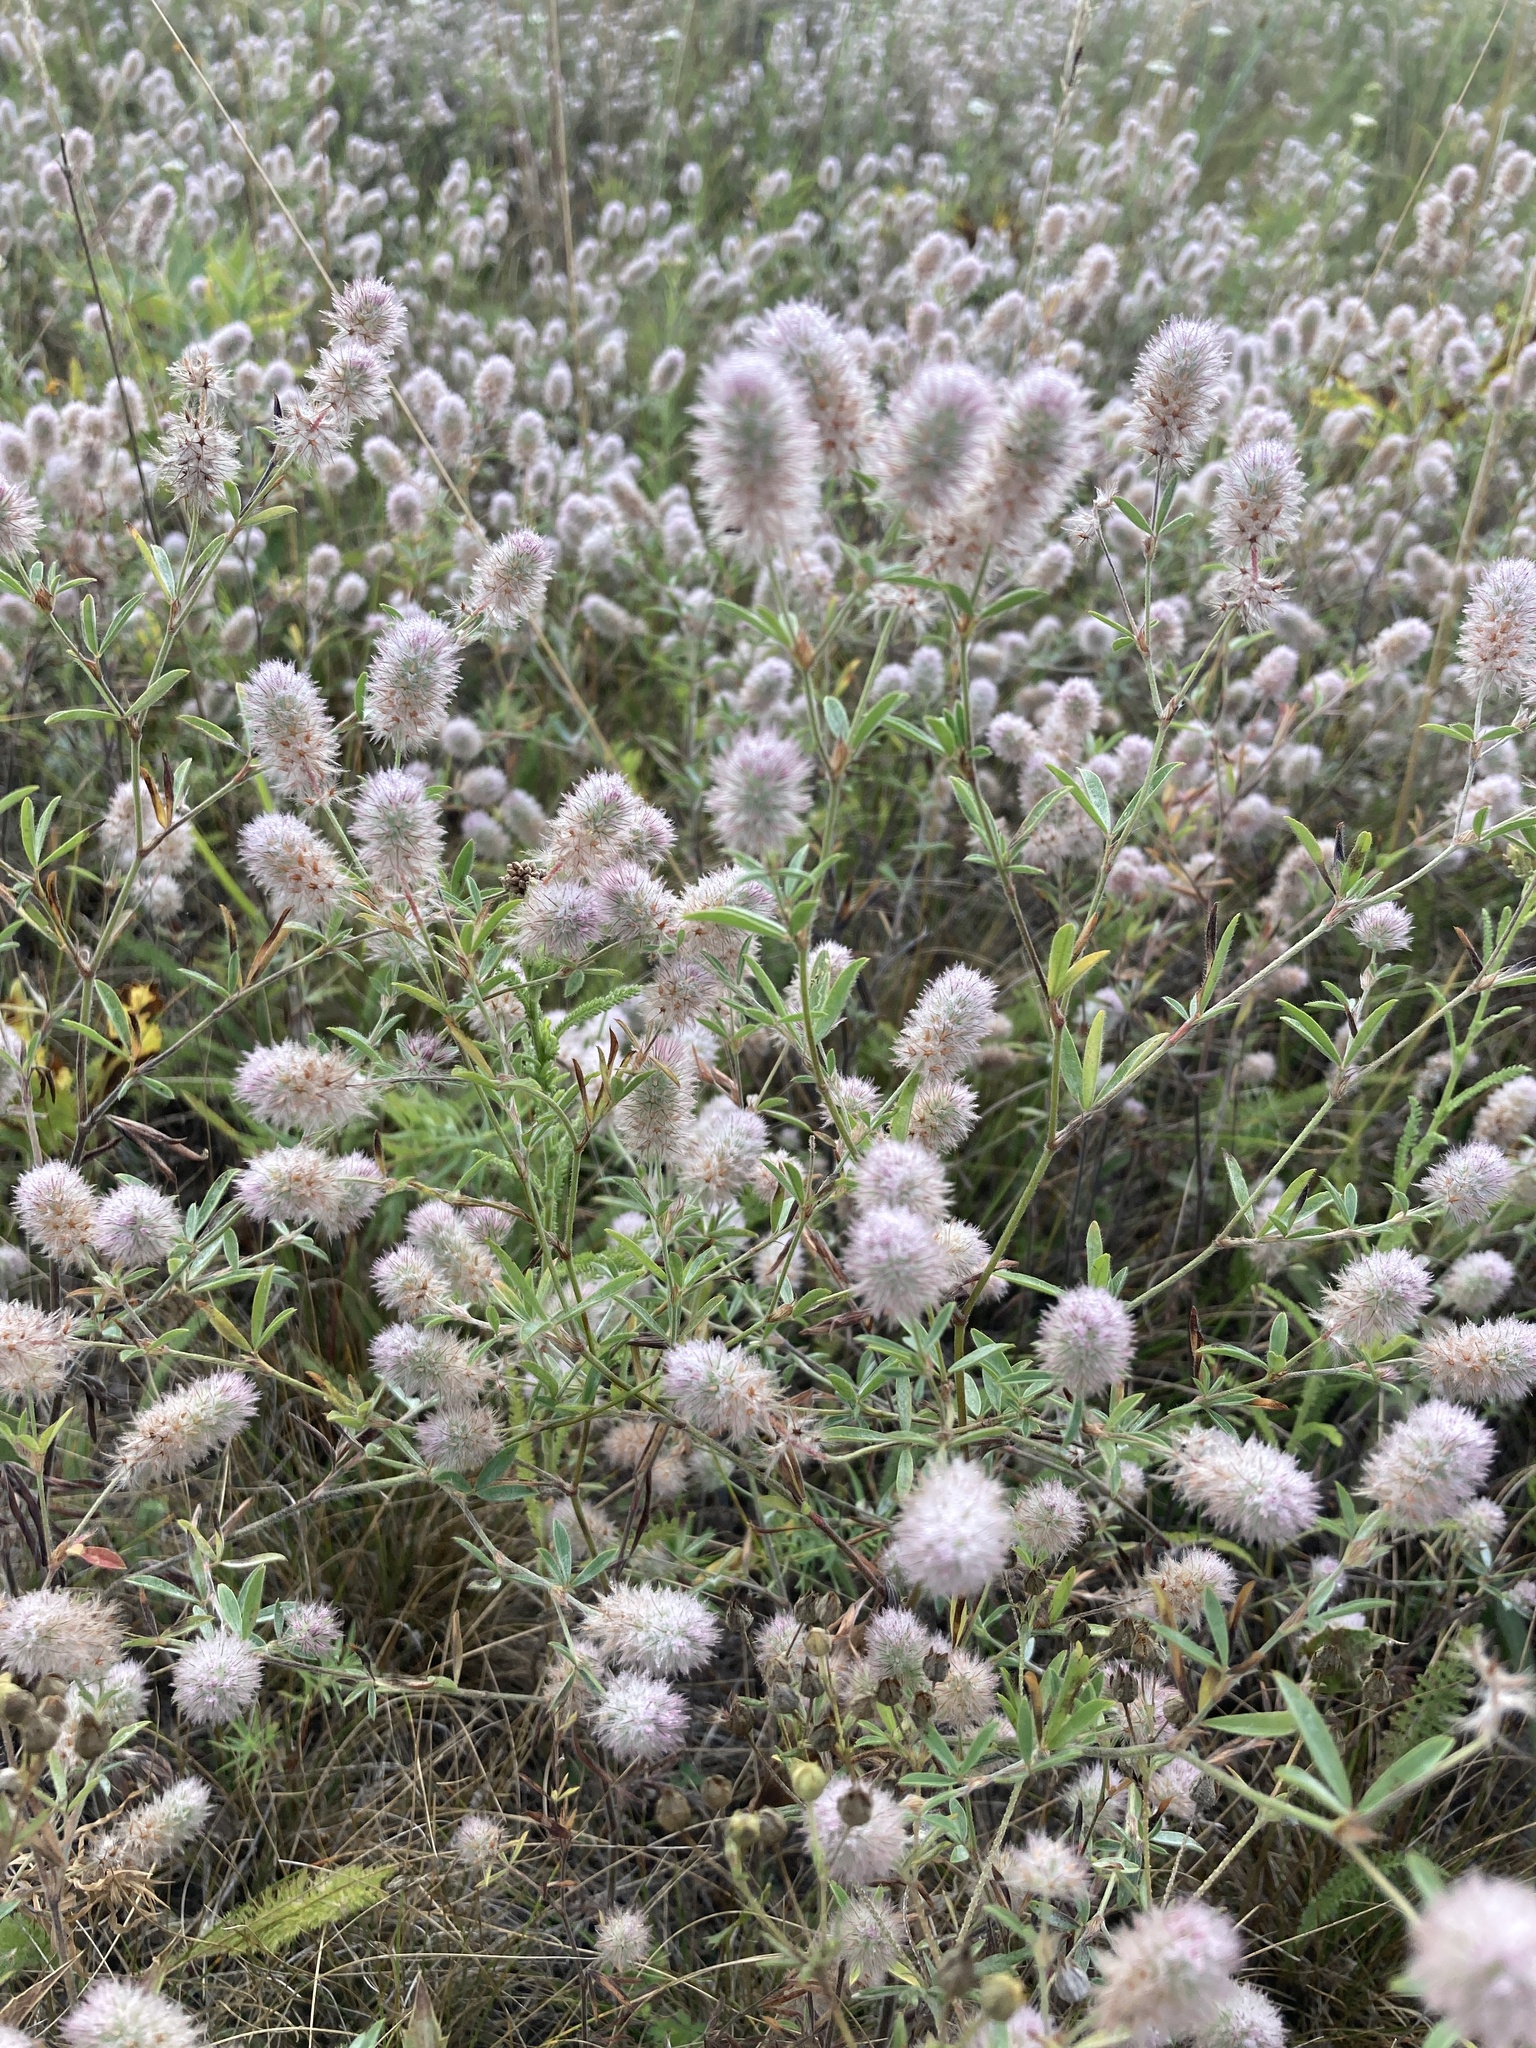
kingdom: Plantae
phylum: Tracheophyta
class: Magnoliopsida
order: Fabales
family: Fabaceae
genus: Trifolium
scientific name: Trifolium arvense
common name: Hare's-foot clover
